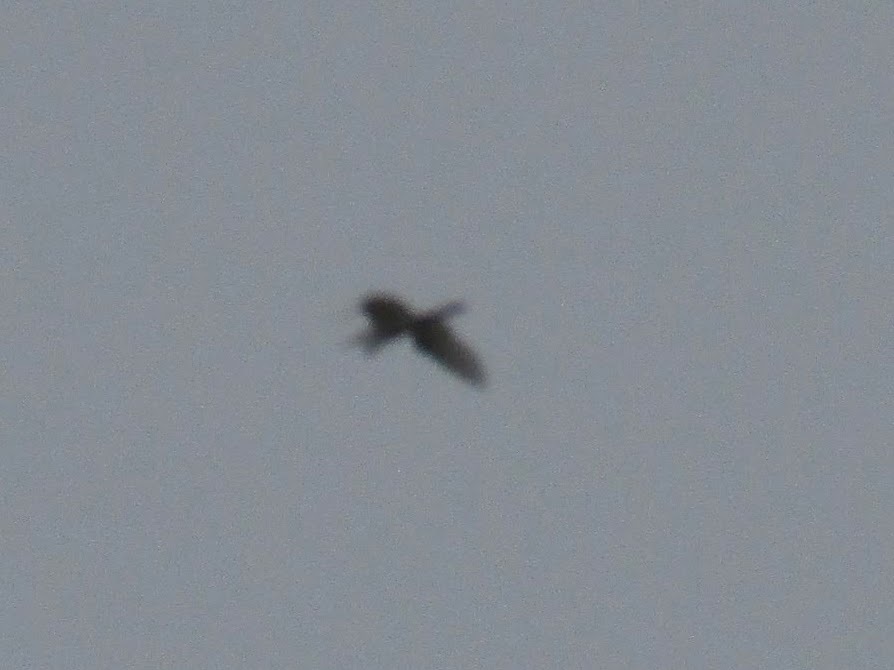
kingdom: Animalia
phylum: Chordata
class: Aves
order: Pelecaniformes
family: Ardeidae
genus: Ardea
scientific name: Ardea alba
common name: Great egret
